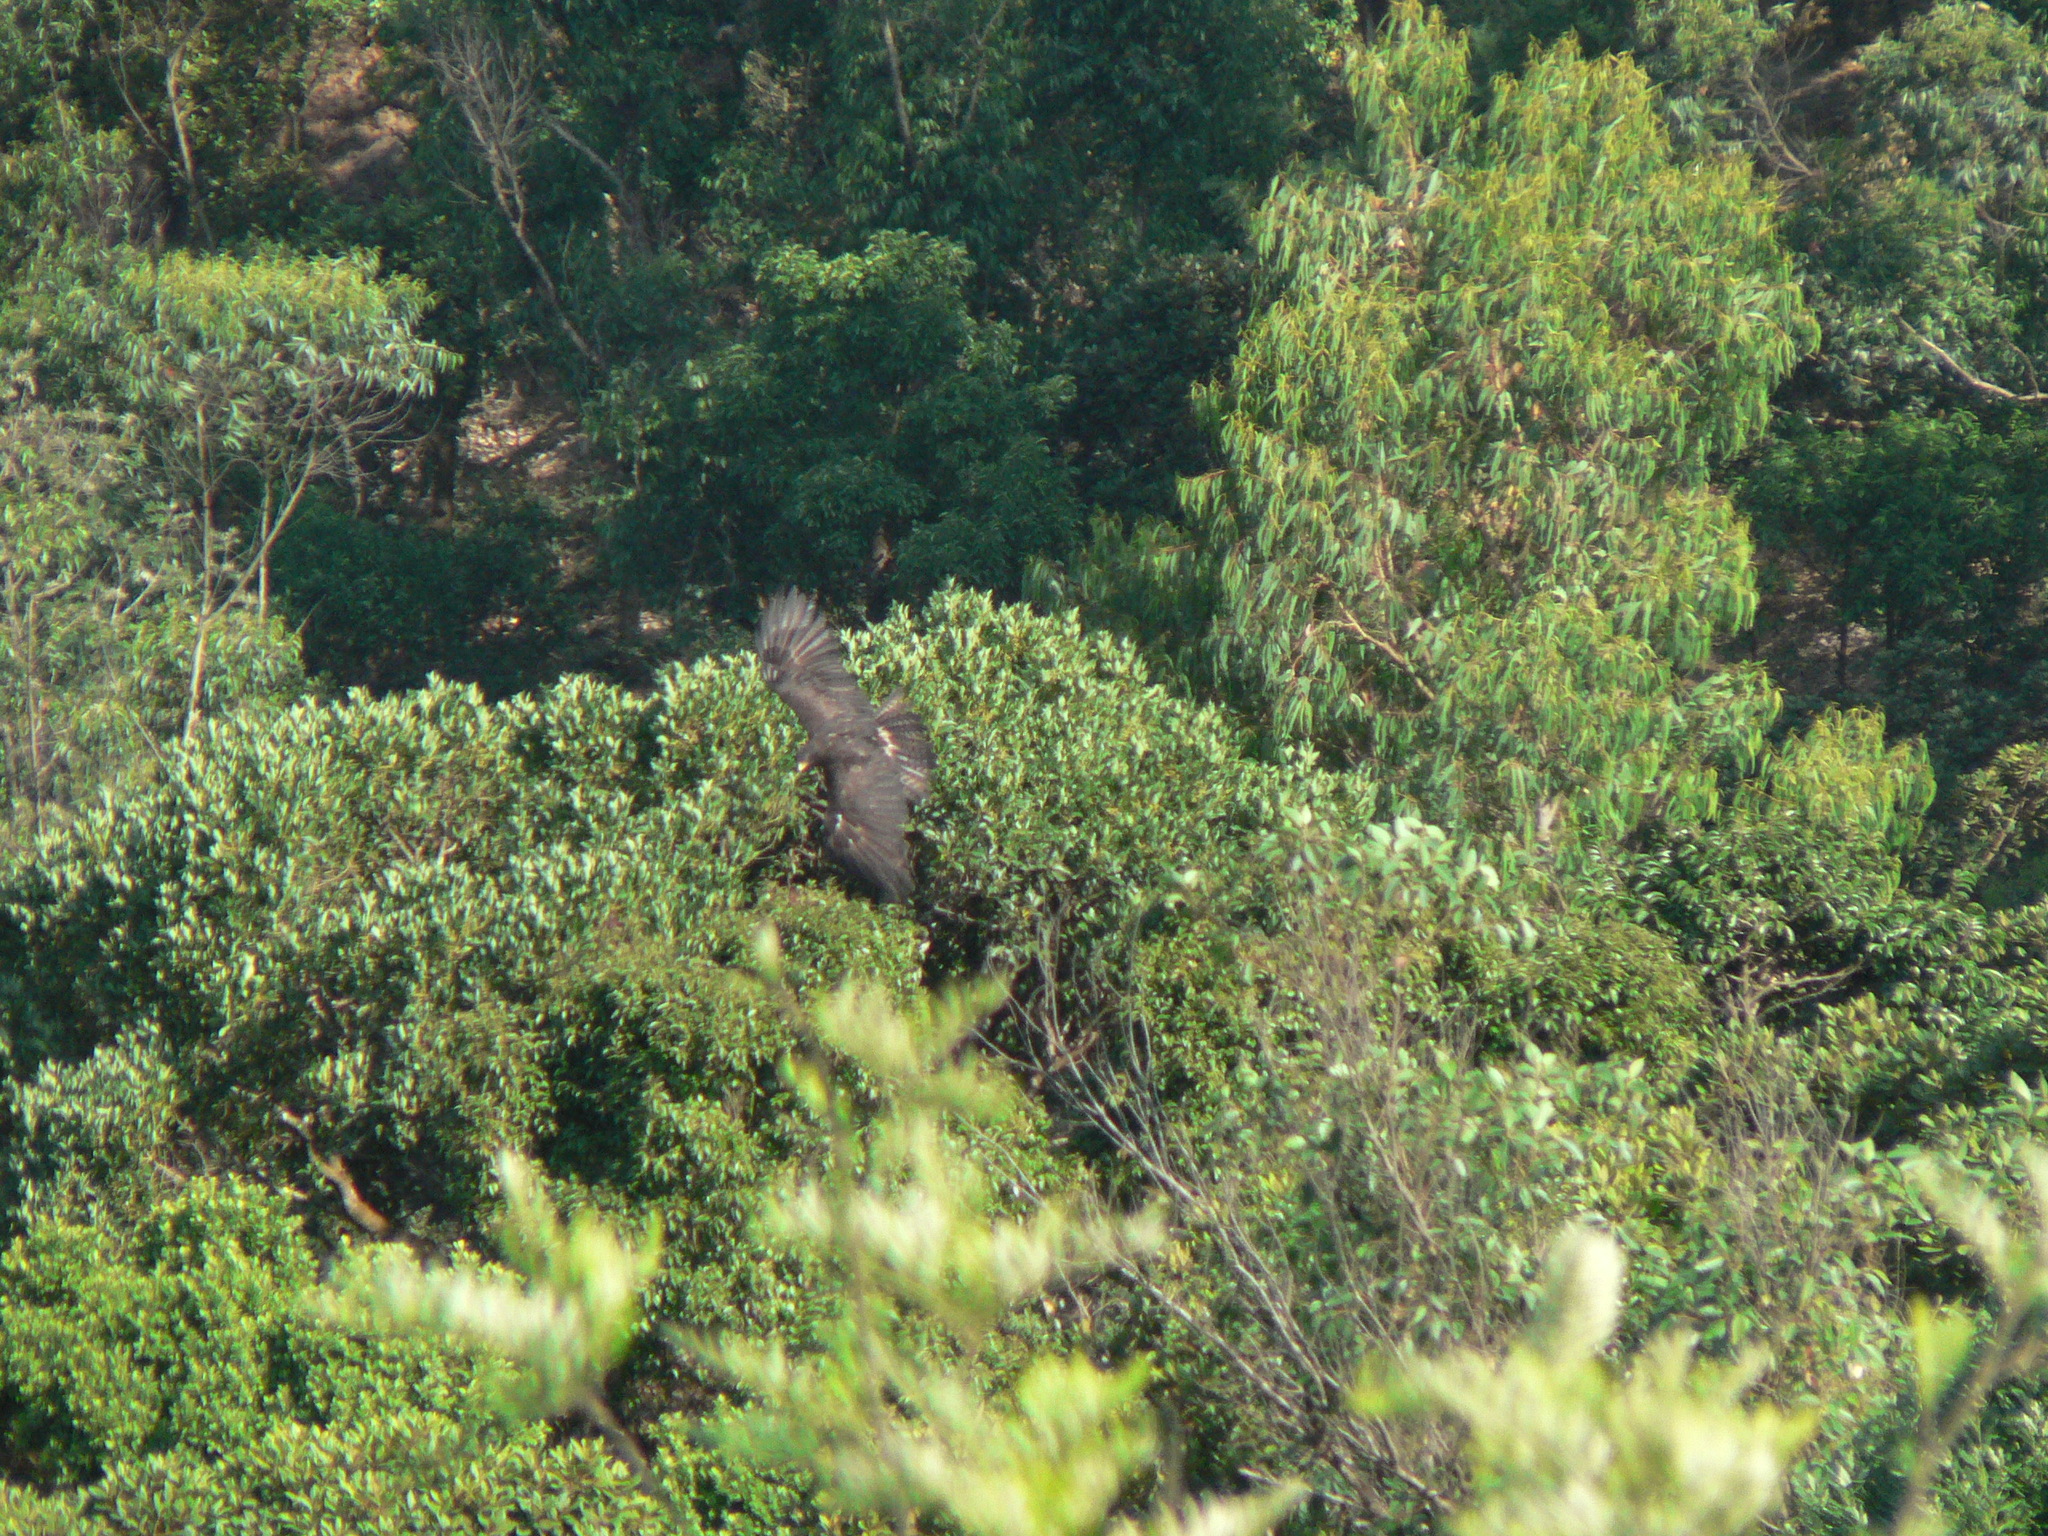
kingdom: Animalia
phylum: Chordata
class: Aves
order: Accipitriformes
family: Accipitridae
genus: Ictinaetus
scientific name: Ictinaetus malayensis
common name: Black eagle
